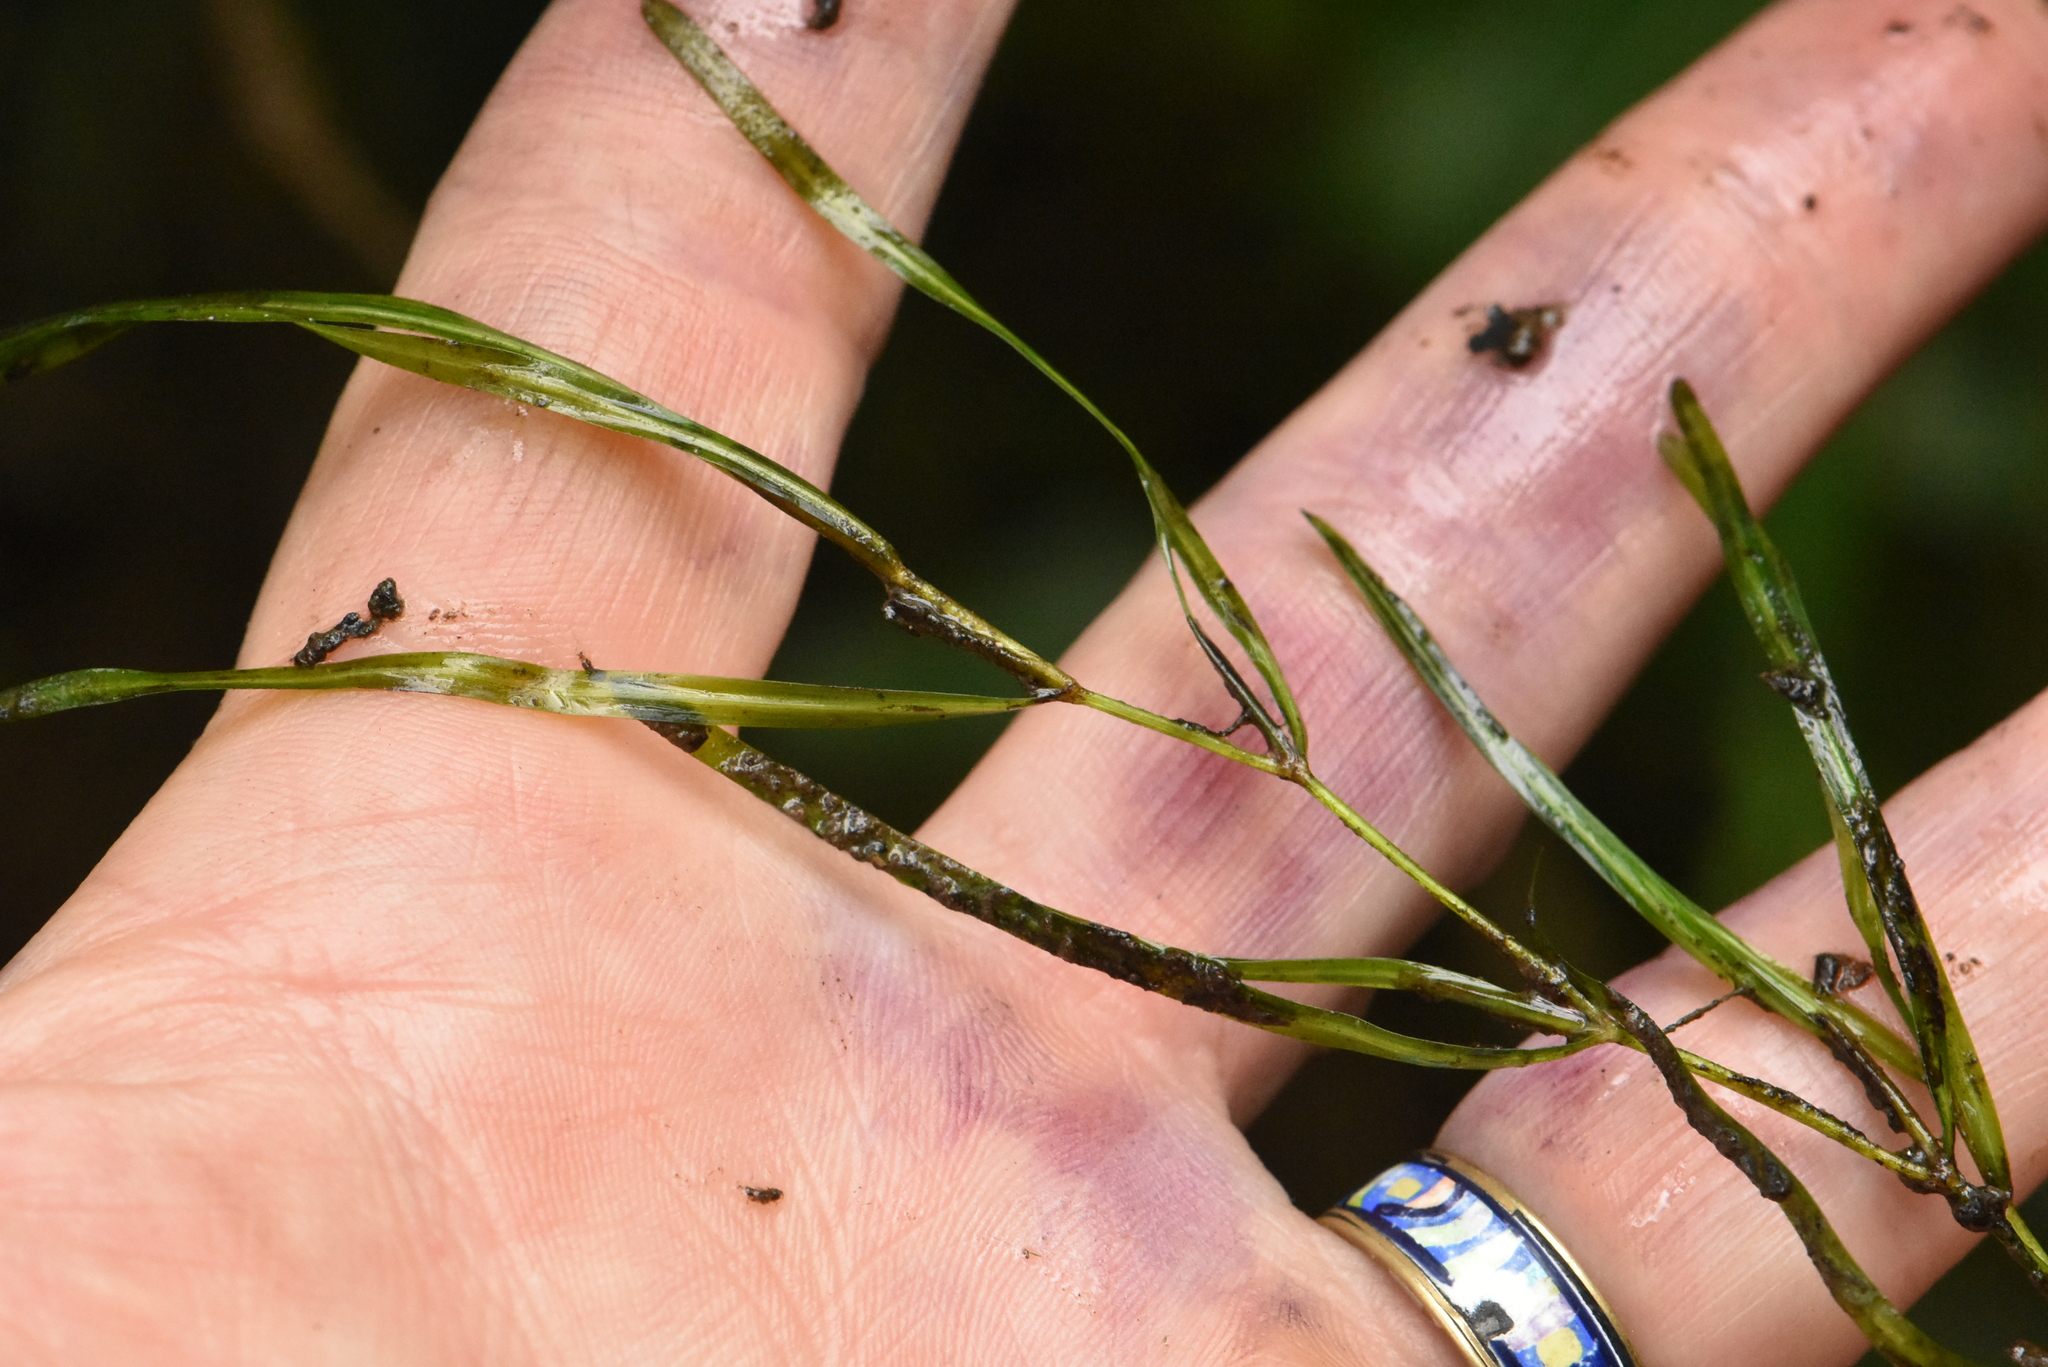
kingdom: Plantae
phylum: Tracheophyta
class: Liliopsida
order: Alismatales
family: Potamogetonaceae
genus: Potamogeton
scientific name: Potamogeton berchtoldii
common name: Small pondweed
